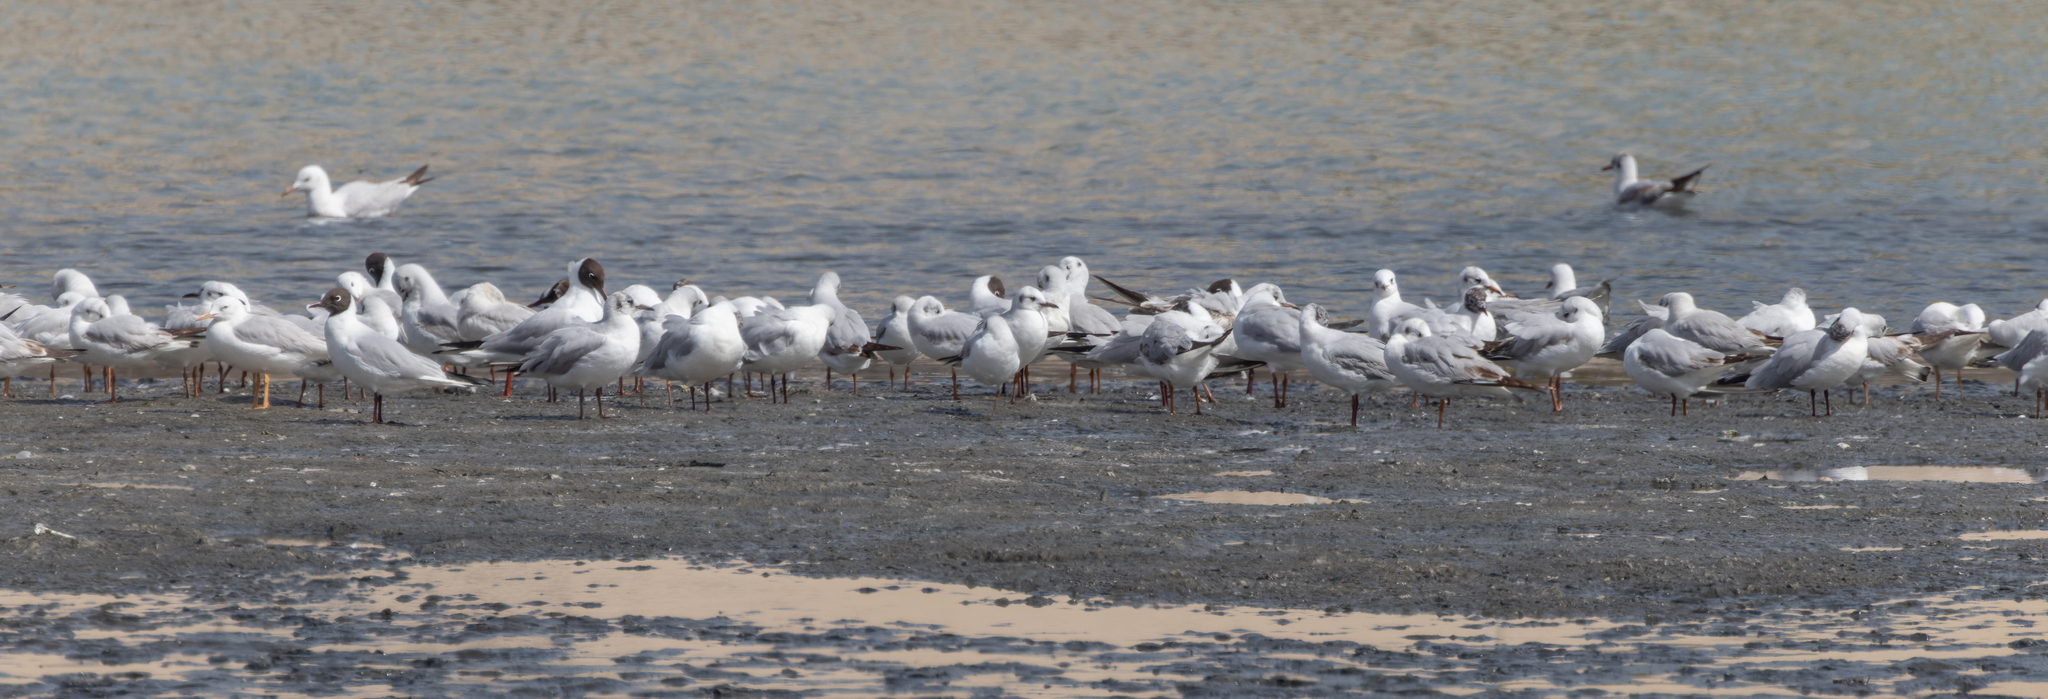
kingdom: Animalia
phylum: Chordata
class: Aves
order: Charadriiformes
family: Laridae
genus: Chroicocephalus
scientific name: Chroicocephalus genei
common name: Slender-billed gull
